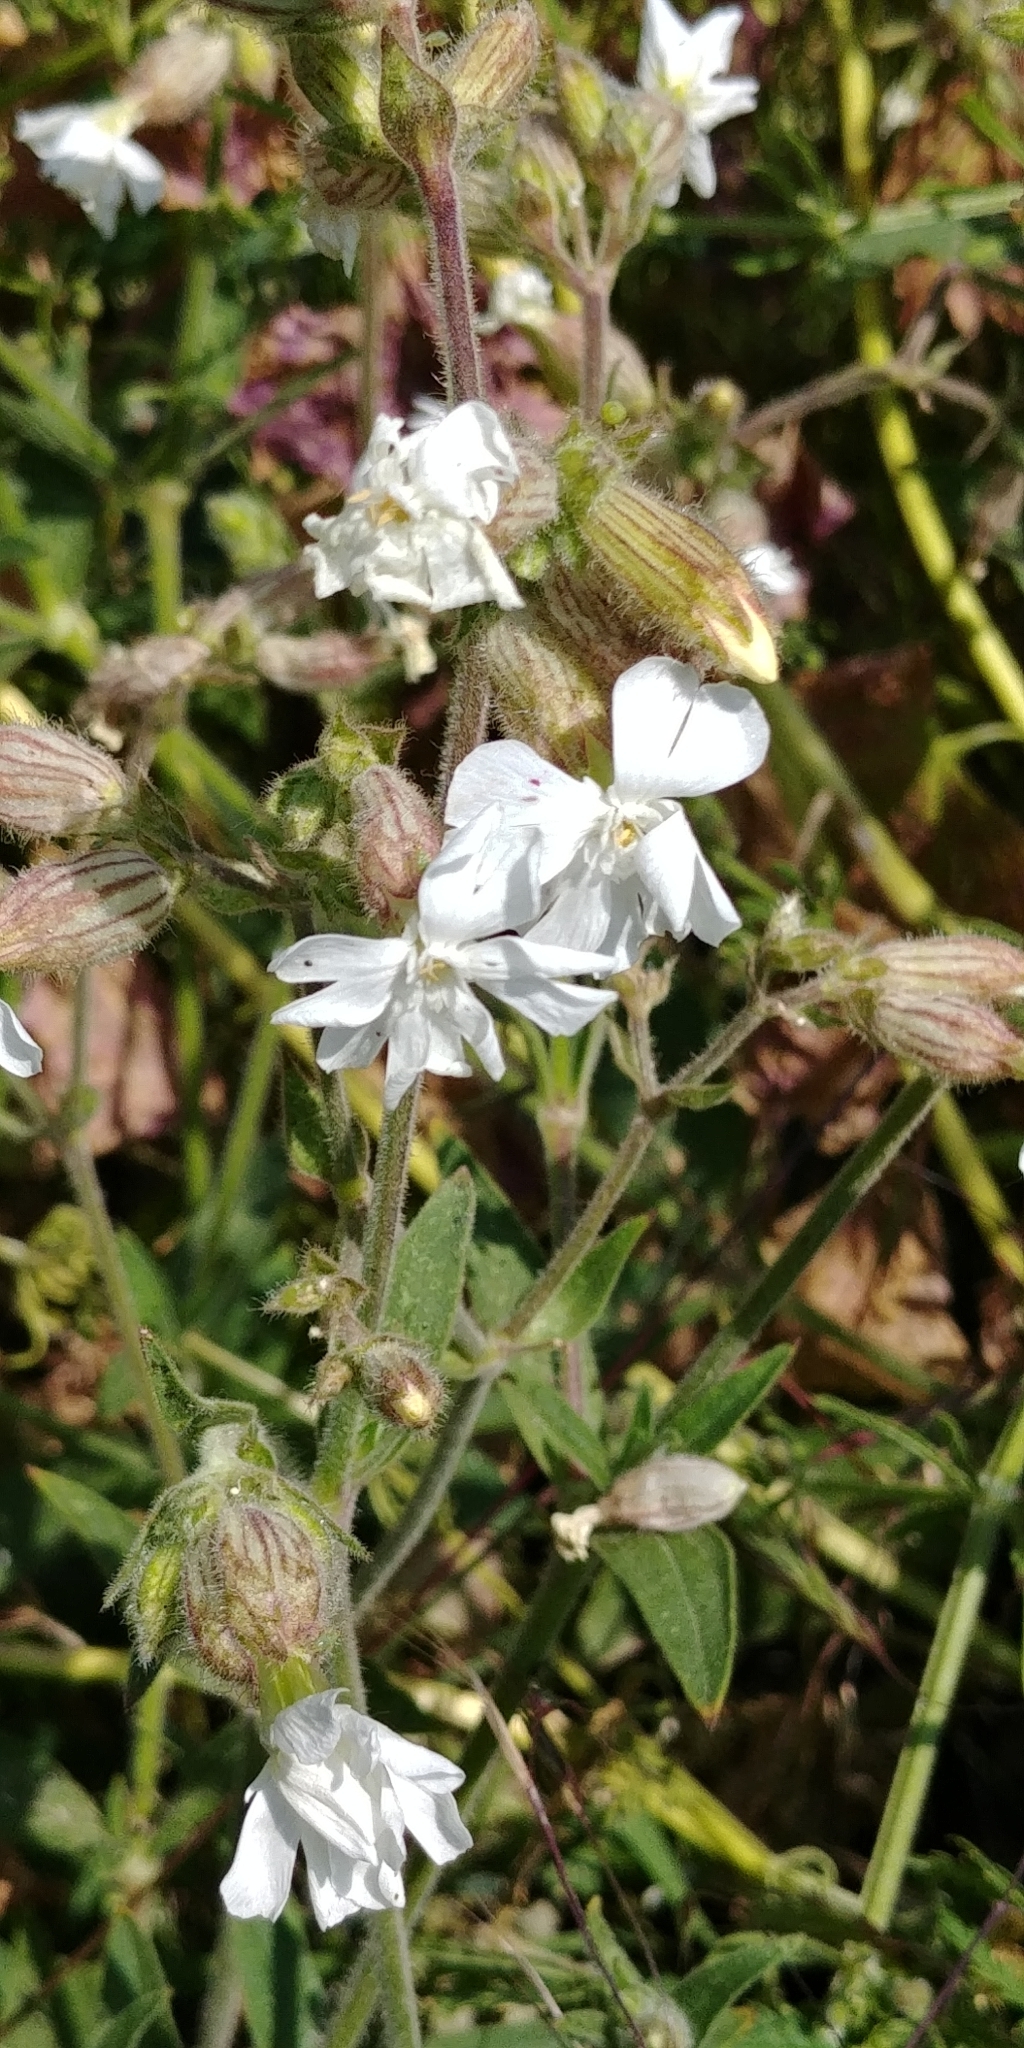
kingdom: Plantae
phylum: Tracheophyta
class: Magnoliopsida
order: Caryophyllales
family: Caryophyllaceae
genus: Silene
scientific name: Silene latifolia
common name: White campion
